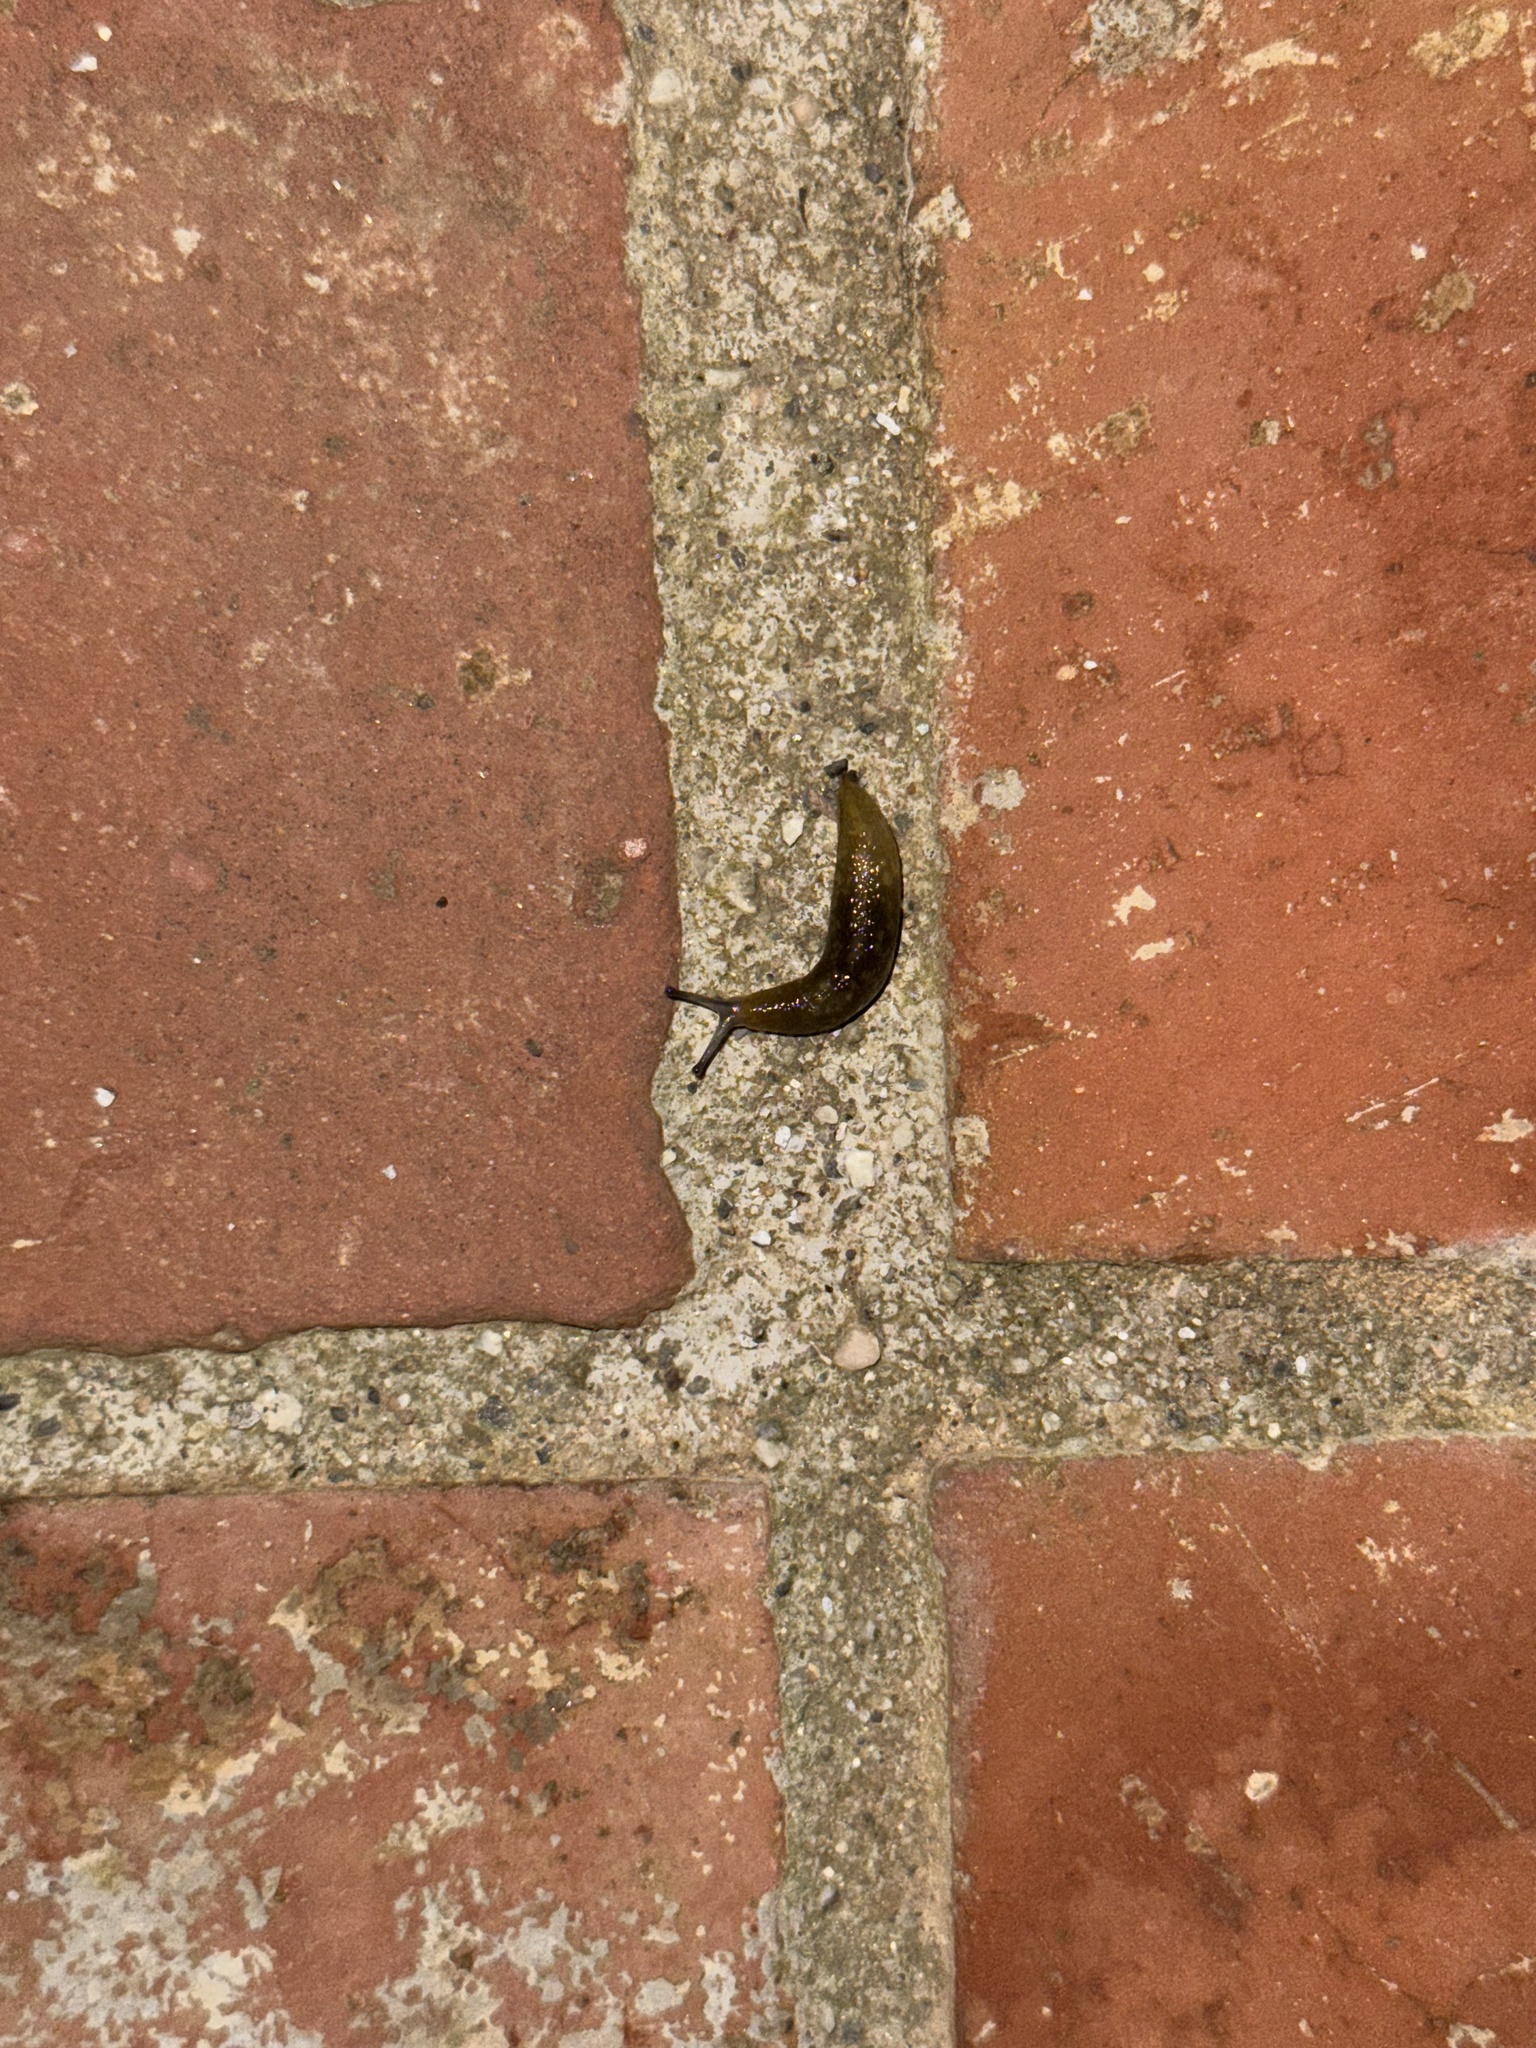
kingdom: Animalia
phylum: Mollusca
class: Gastropoda
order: Stylommatophora
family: Limacidae
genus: Limacus
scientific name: Limacus flavus
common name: Yellow gardenslug
